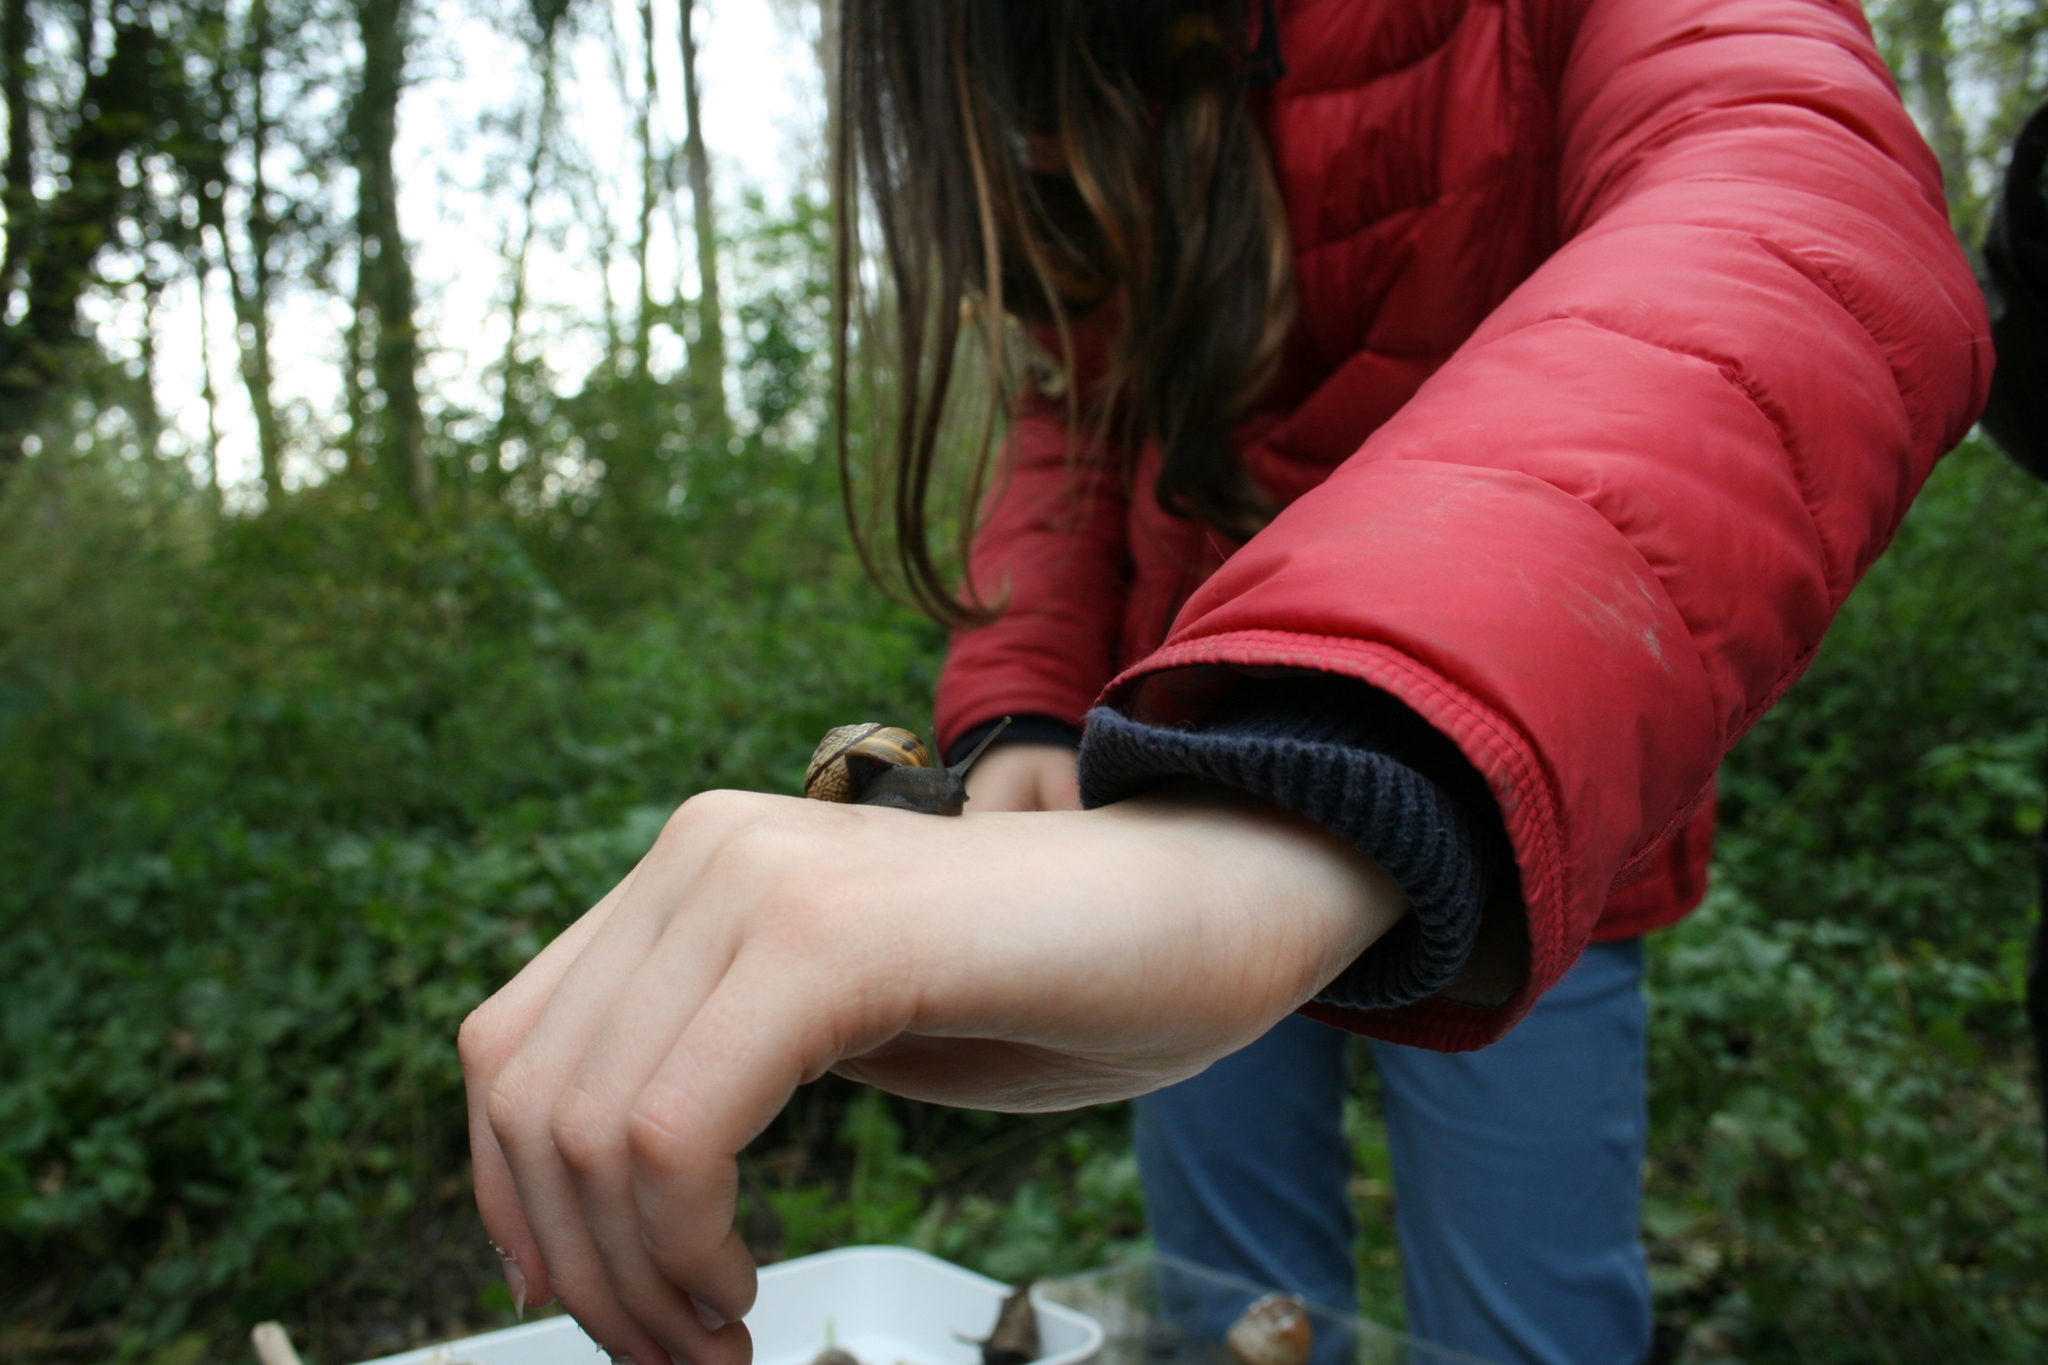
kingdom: Animalia
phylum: Mollusca
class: Gastropoda
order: Stylommatophora
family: Helicidae
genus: Arianta
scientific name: Arianta arbustorum
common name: Copse snail
